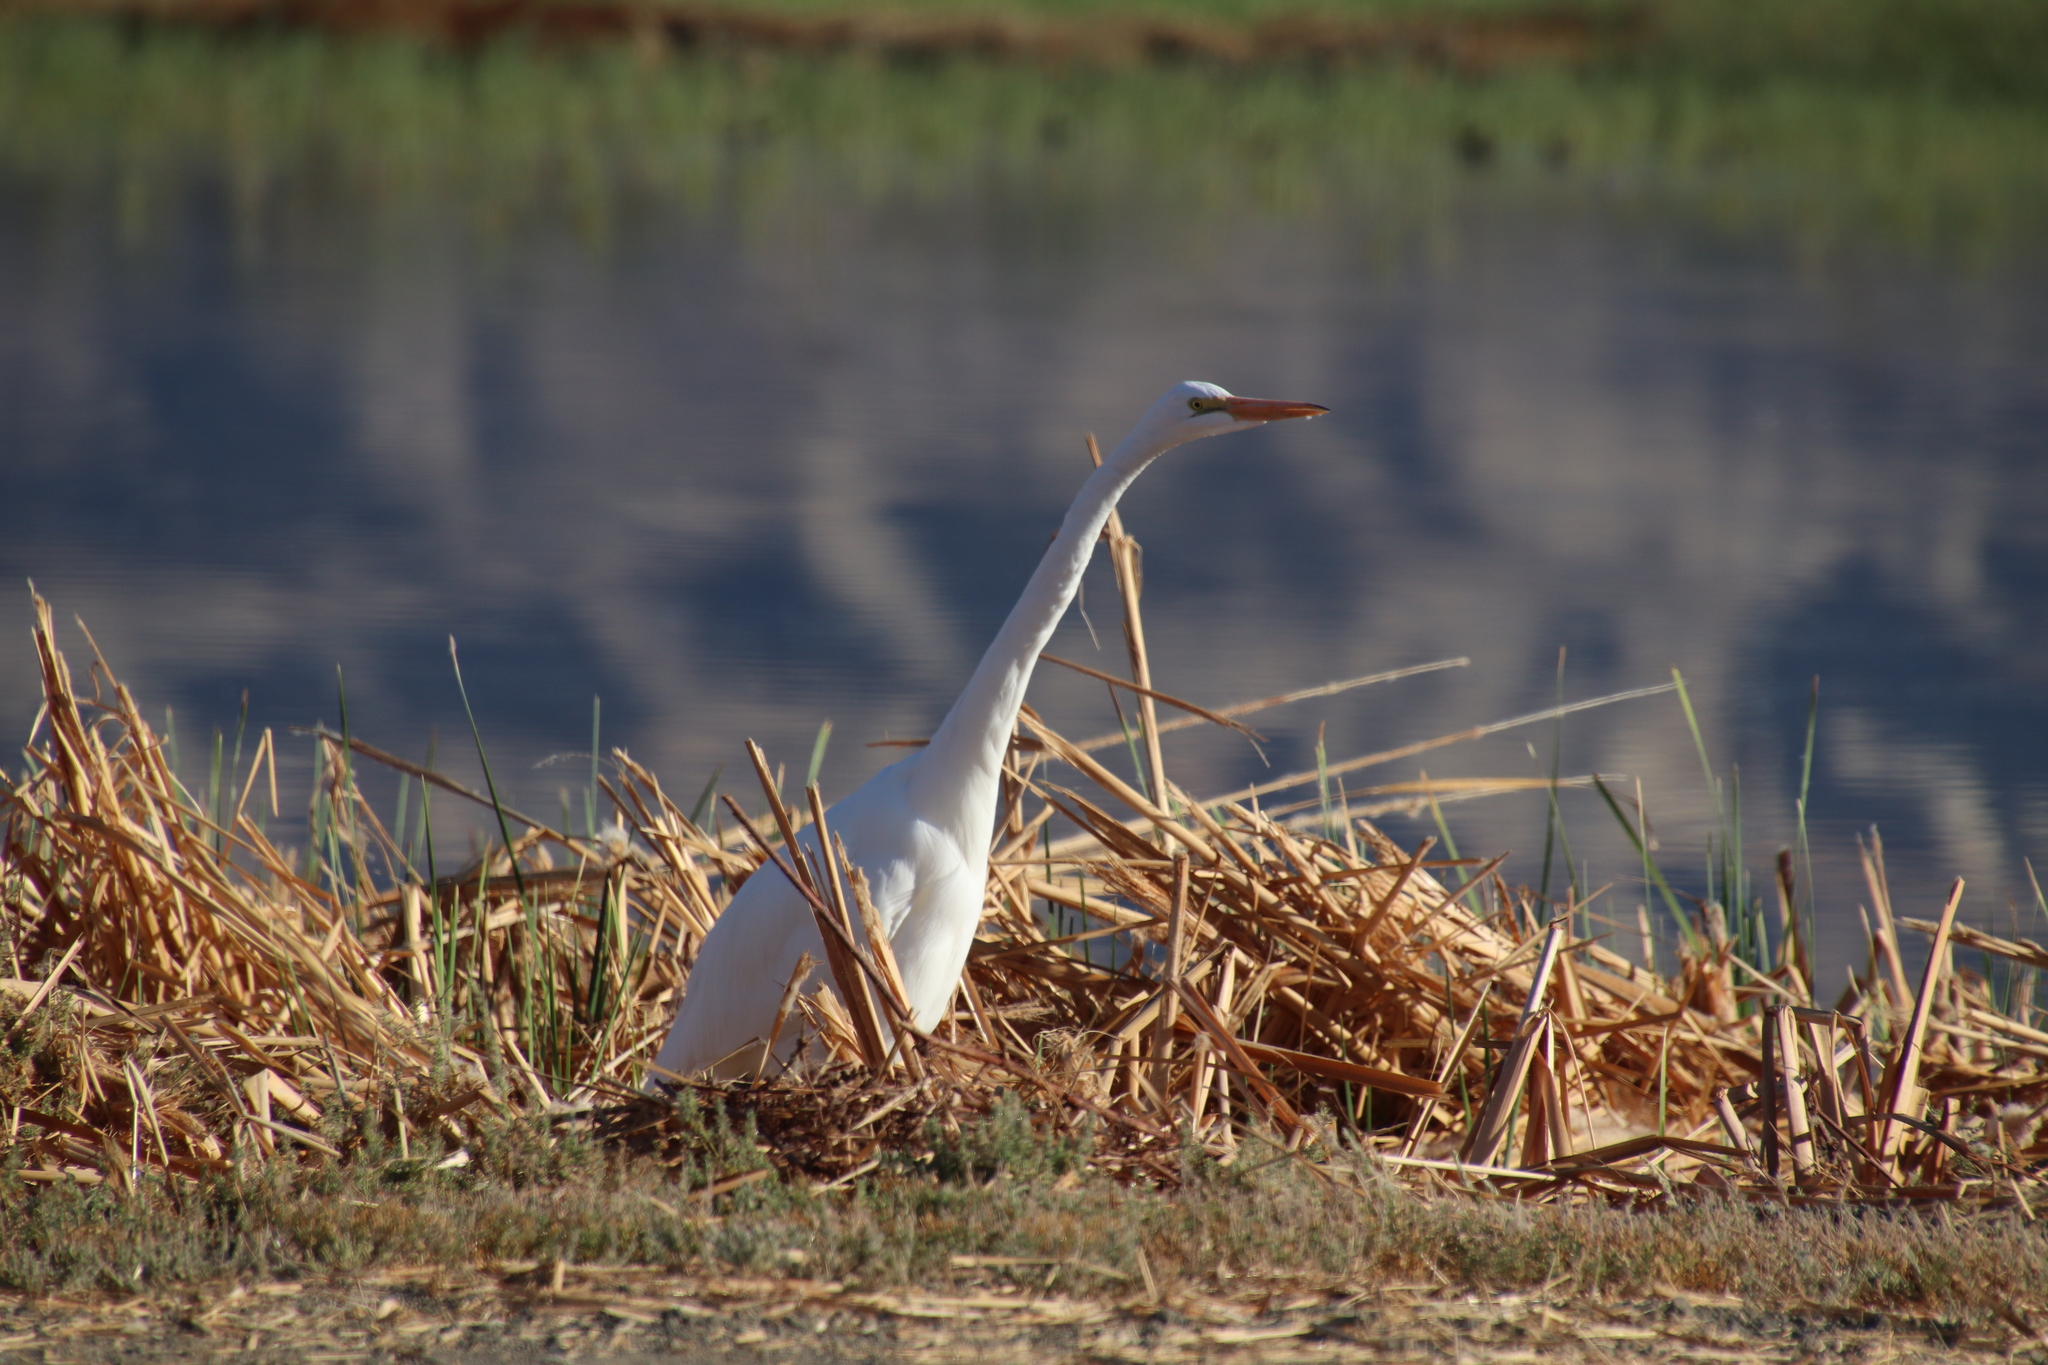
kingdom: Animalia
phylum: Chordata
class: Aves
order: Pelecaniformes
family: Ardeidae
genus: Ardea
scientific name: Ardea alba
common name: Great egret
